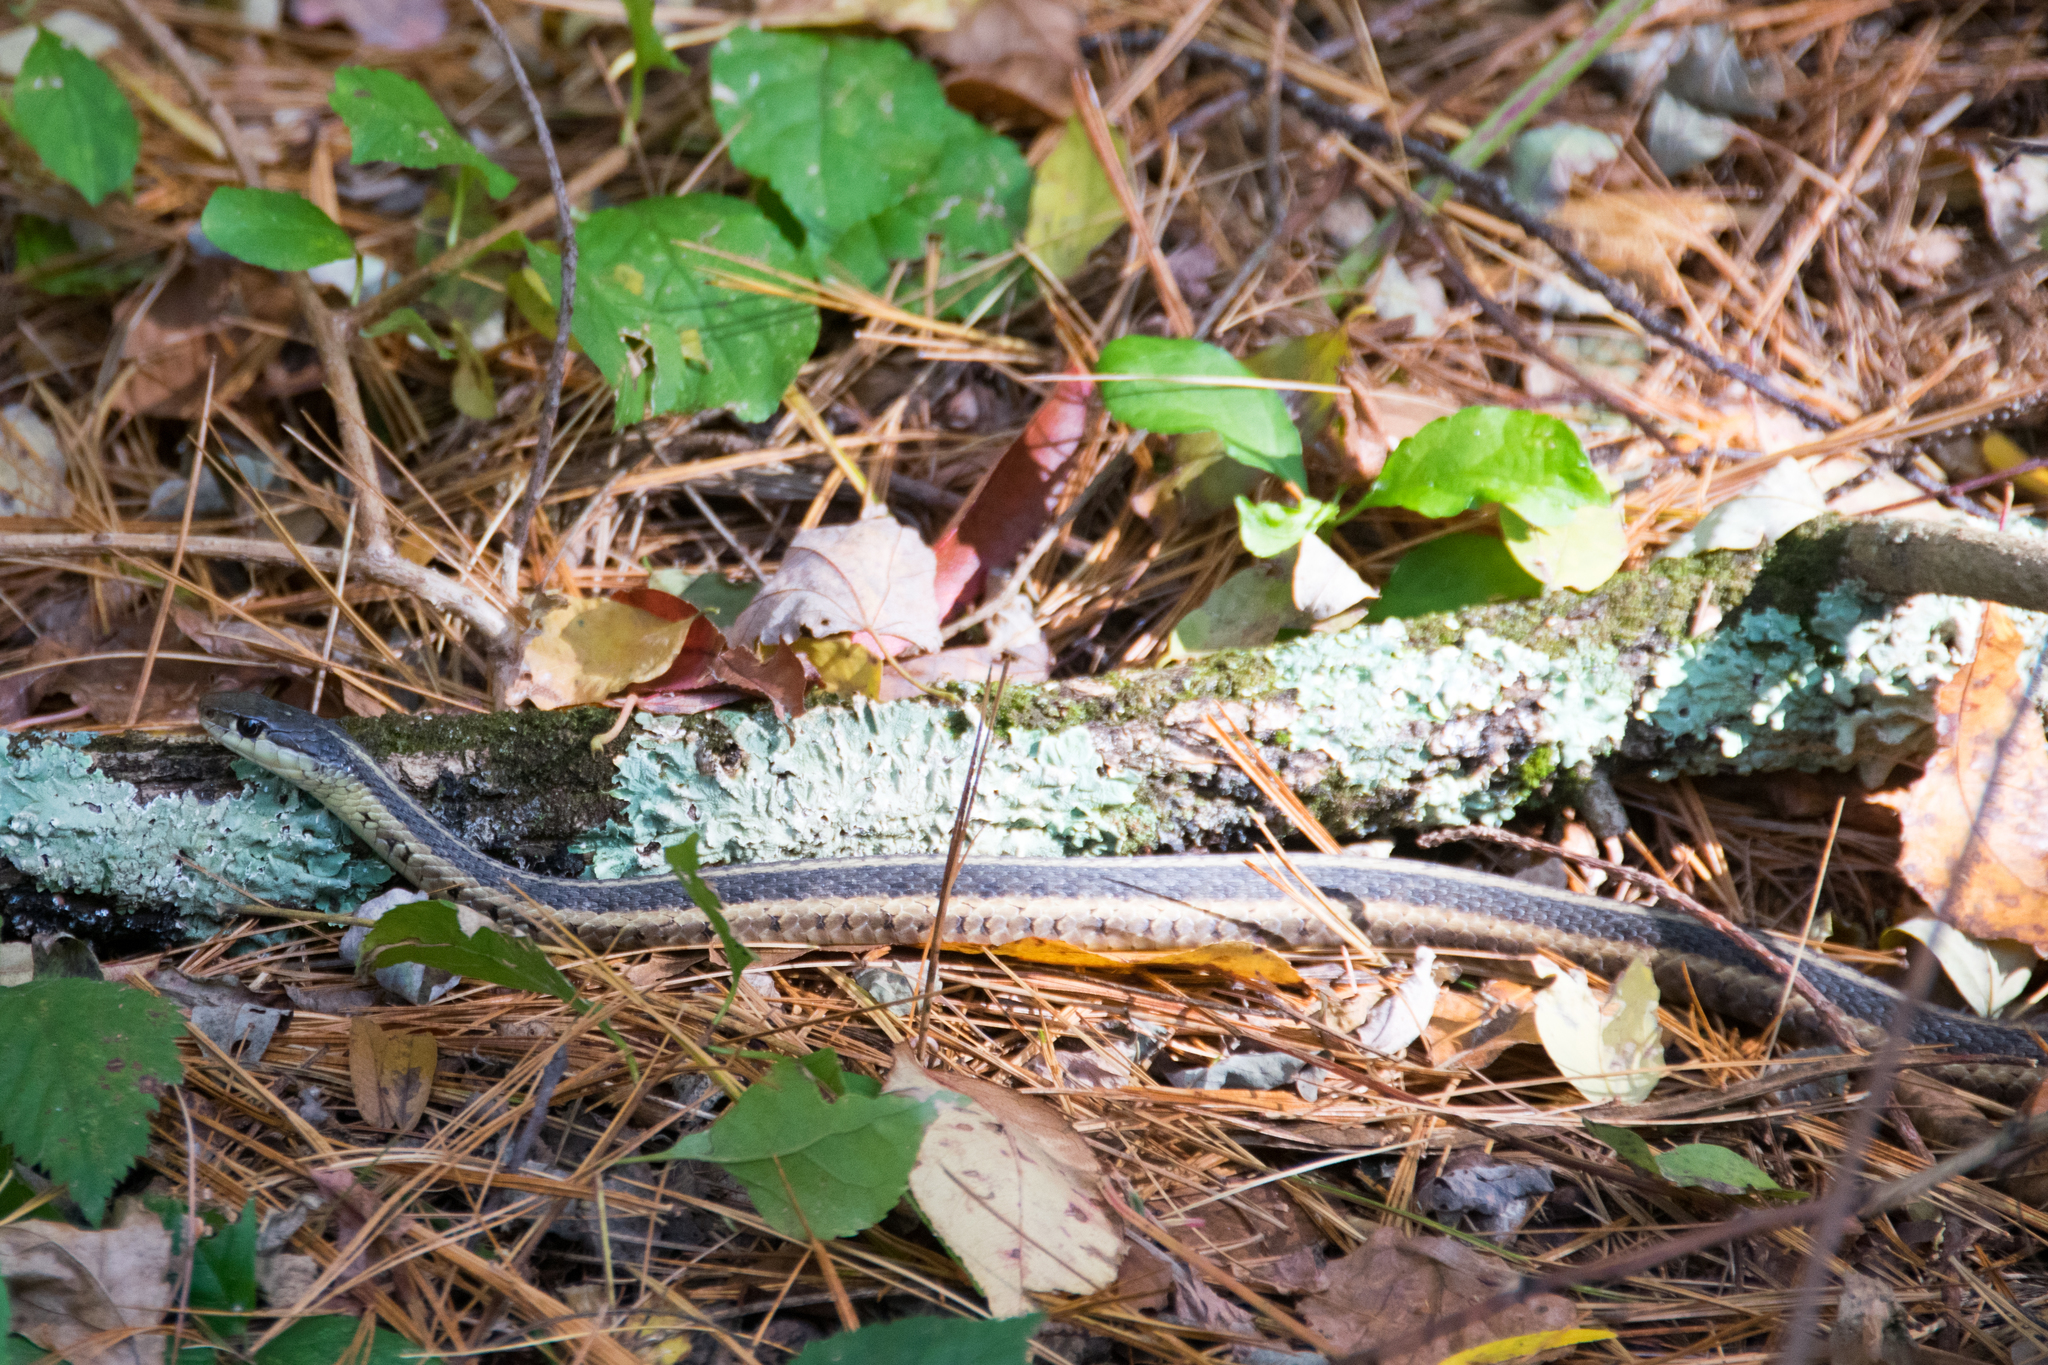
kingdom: Animalia
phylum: Chordata
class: Squamata
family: Colubridae
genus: Thamnophis
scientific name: Thamnophis sirtalis
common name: Common garter snake
